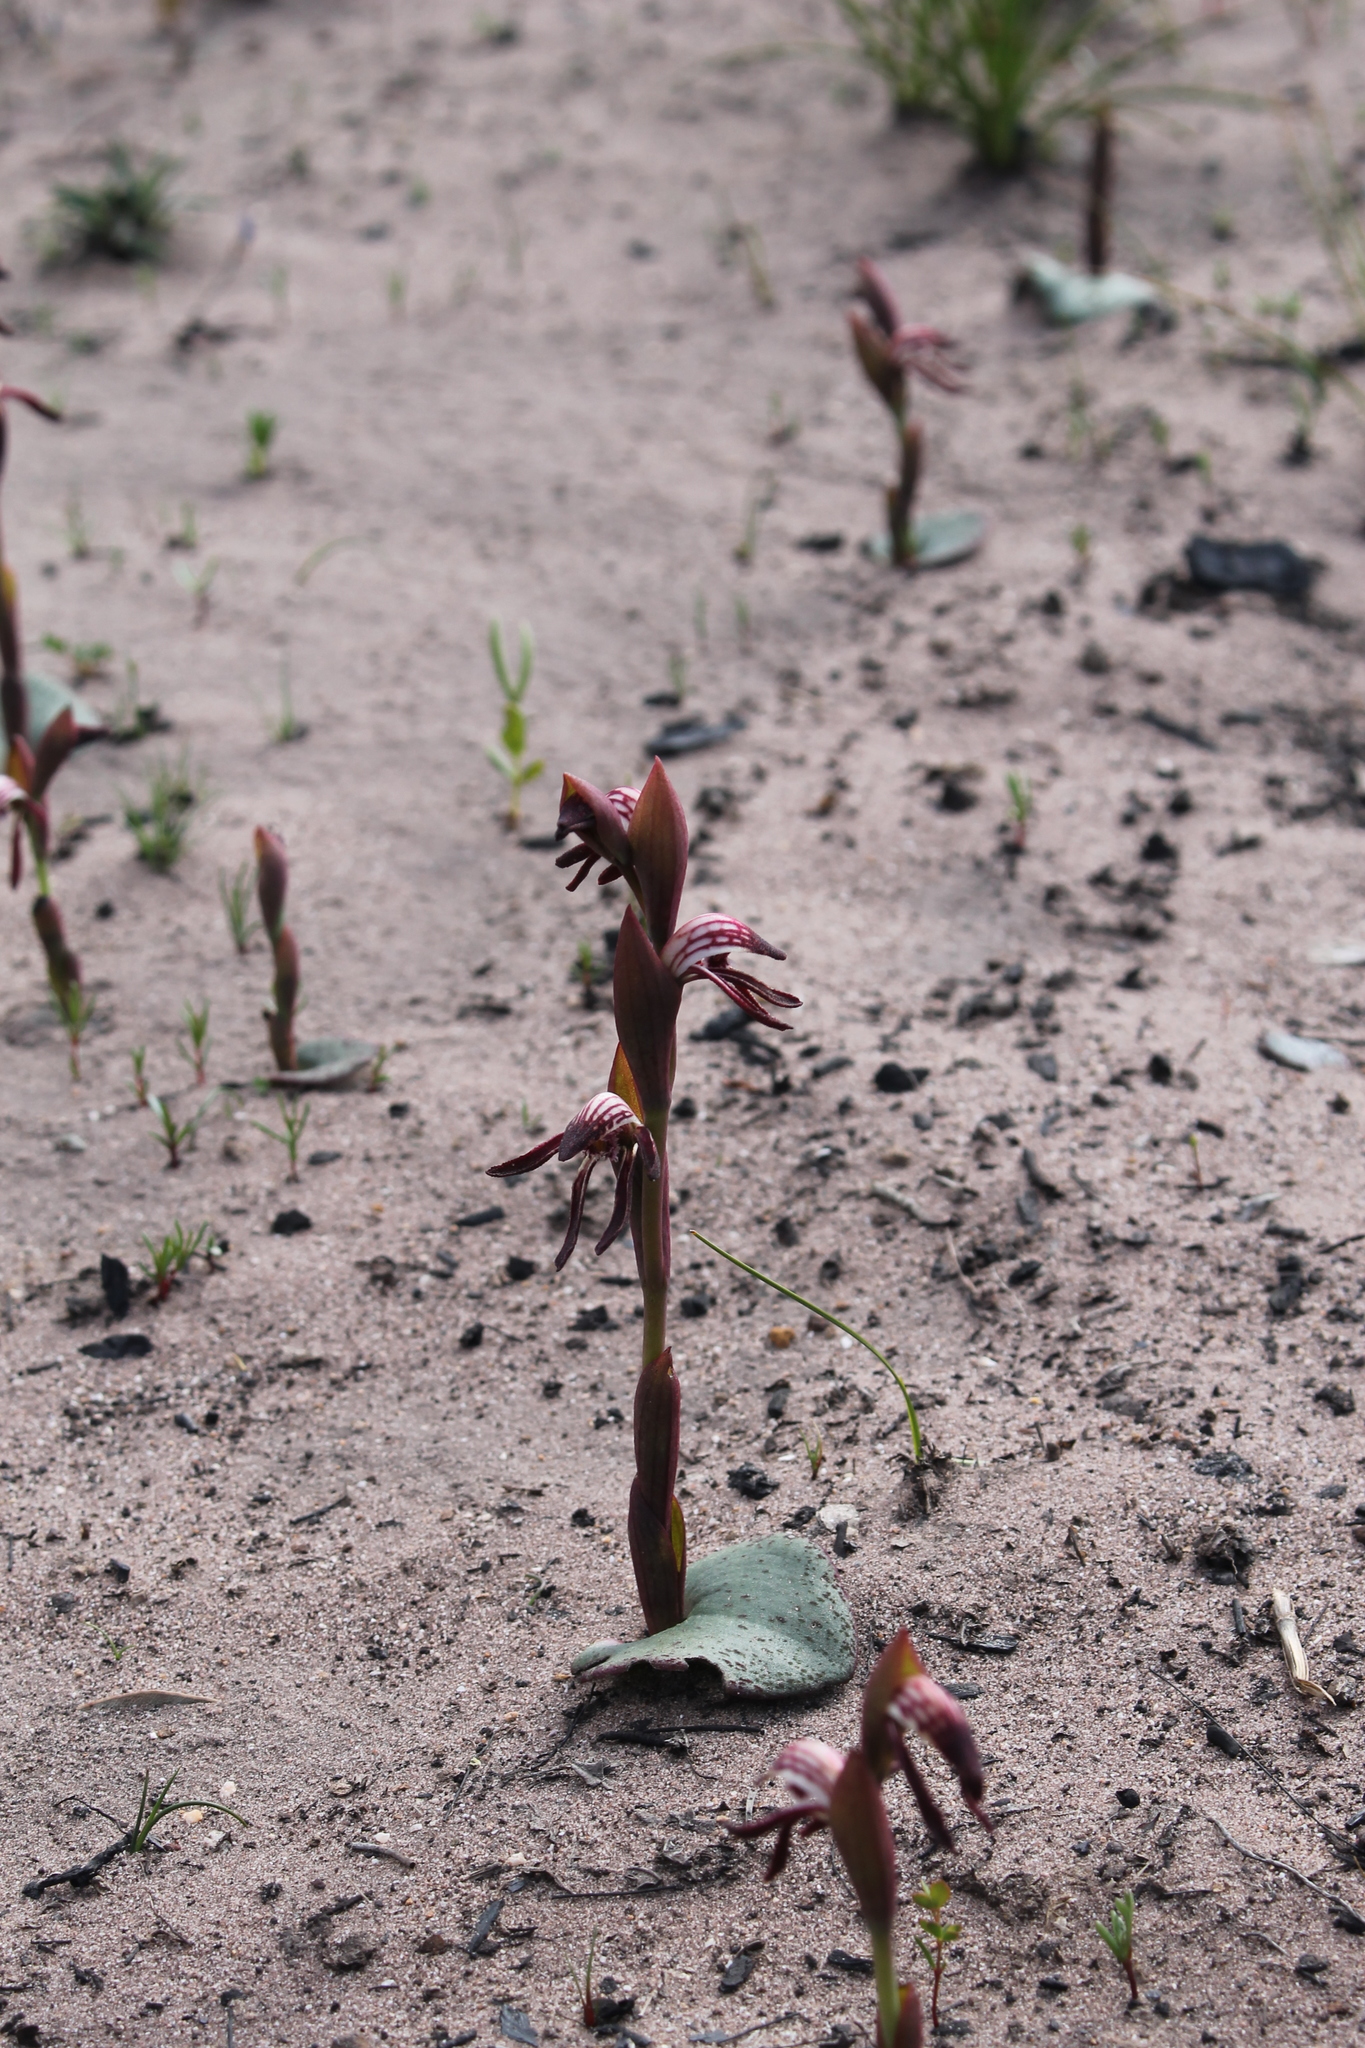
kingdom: Plantae
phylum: Tracheophyta
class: Liliopsida
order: Asparagales
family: Orchidaceae
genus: Pyrorchis
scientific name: Pyrorchis nigricans
